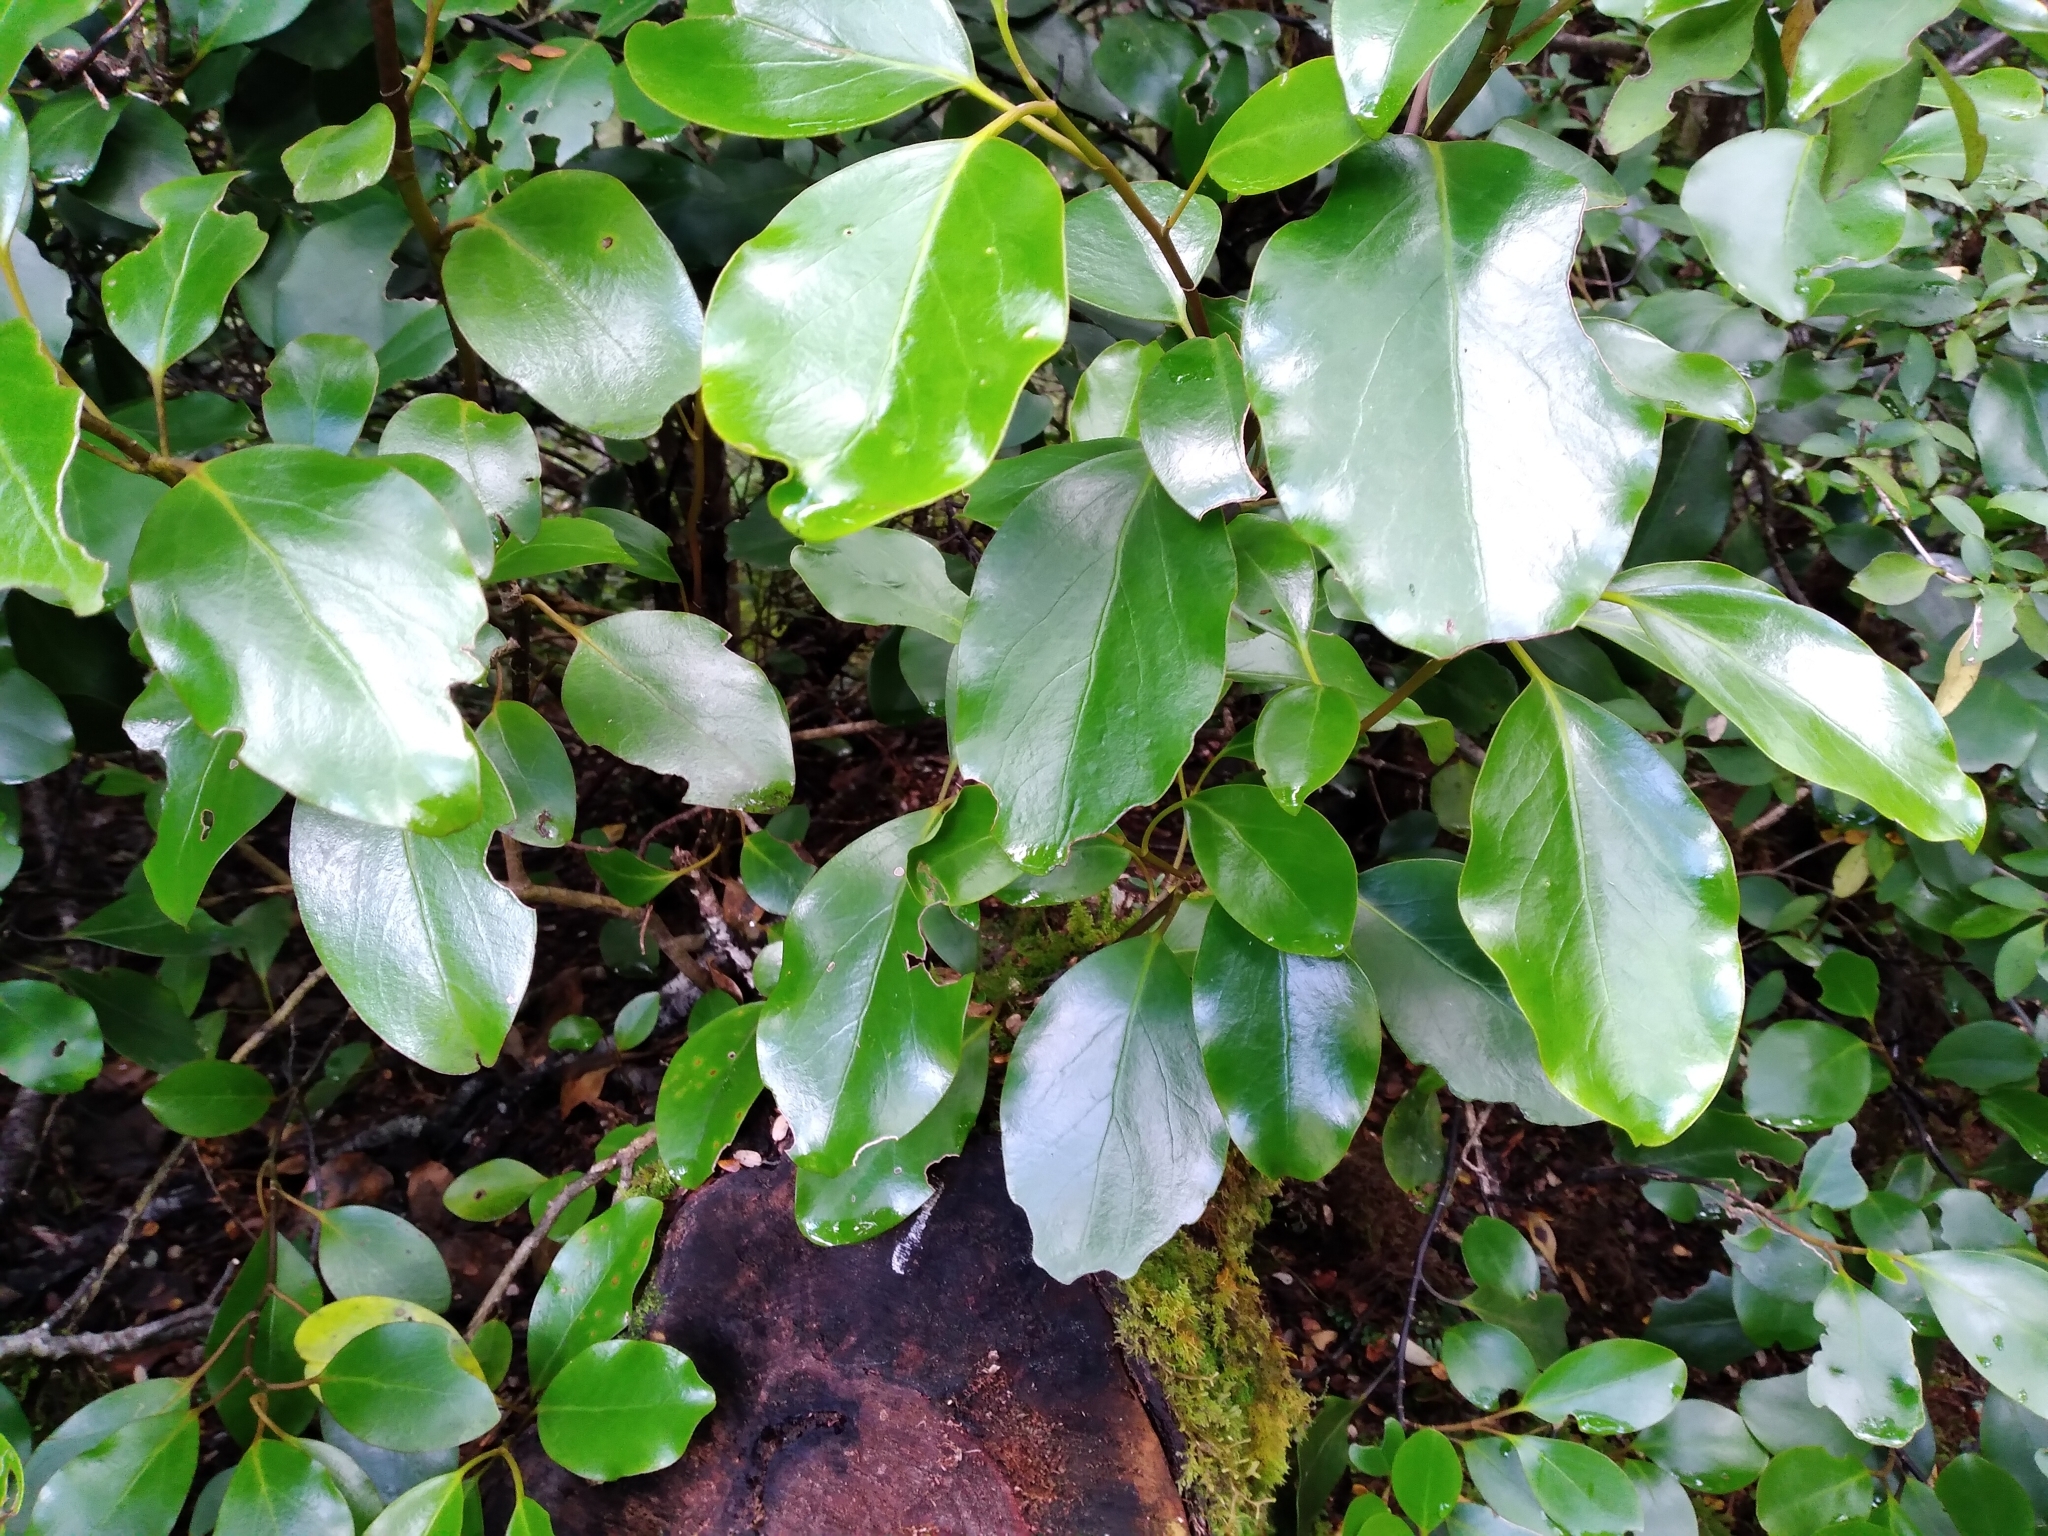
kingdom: Plantae
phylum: Tracheophyta
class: Magnoliopsida
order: Apiales
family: Griseliniaceae
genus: Griselinia
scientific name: Griselinia littoralis
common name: New zealand broadleaf
